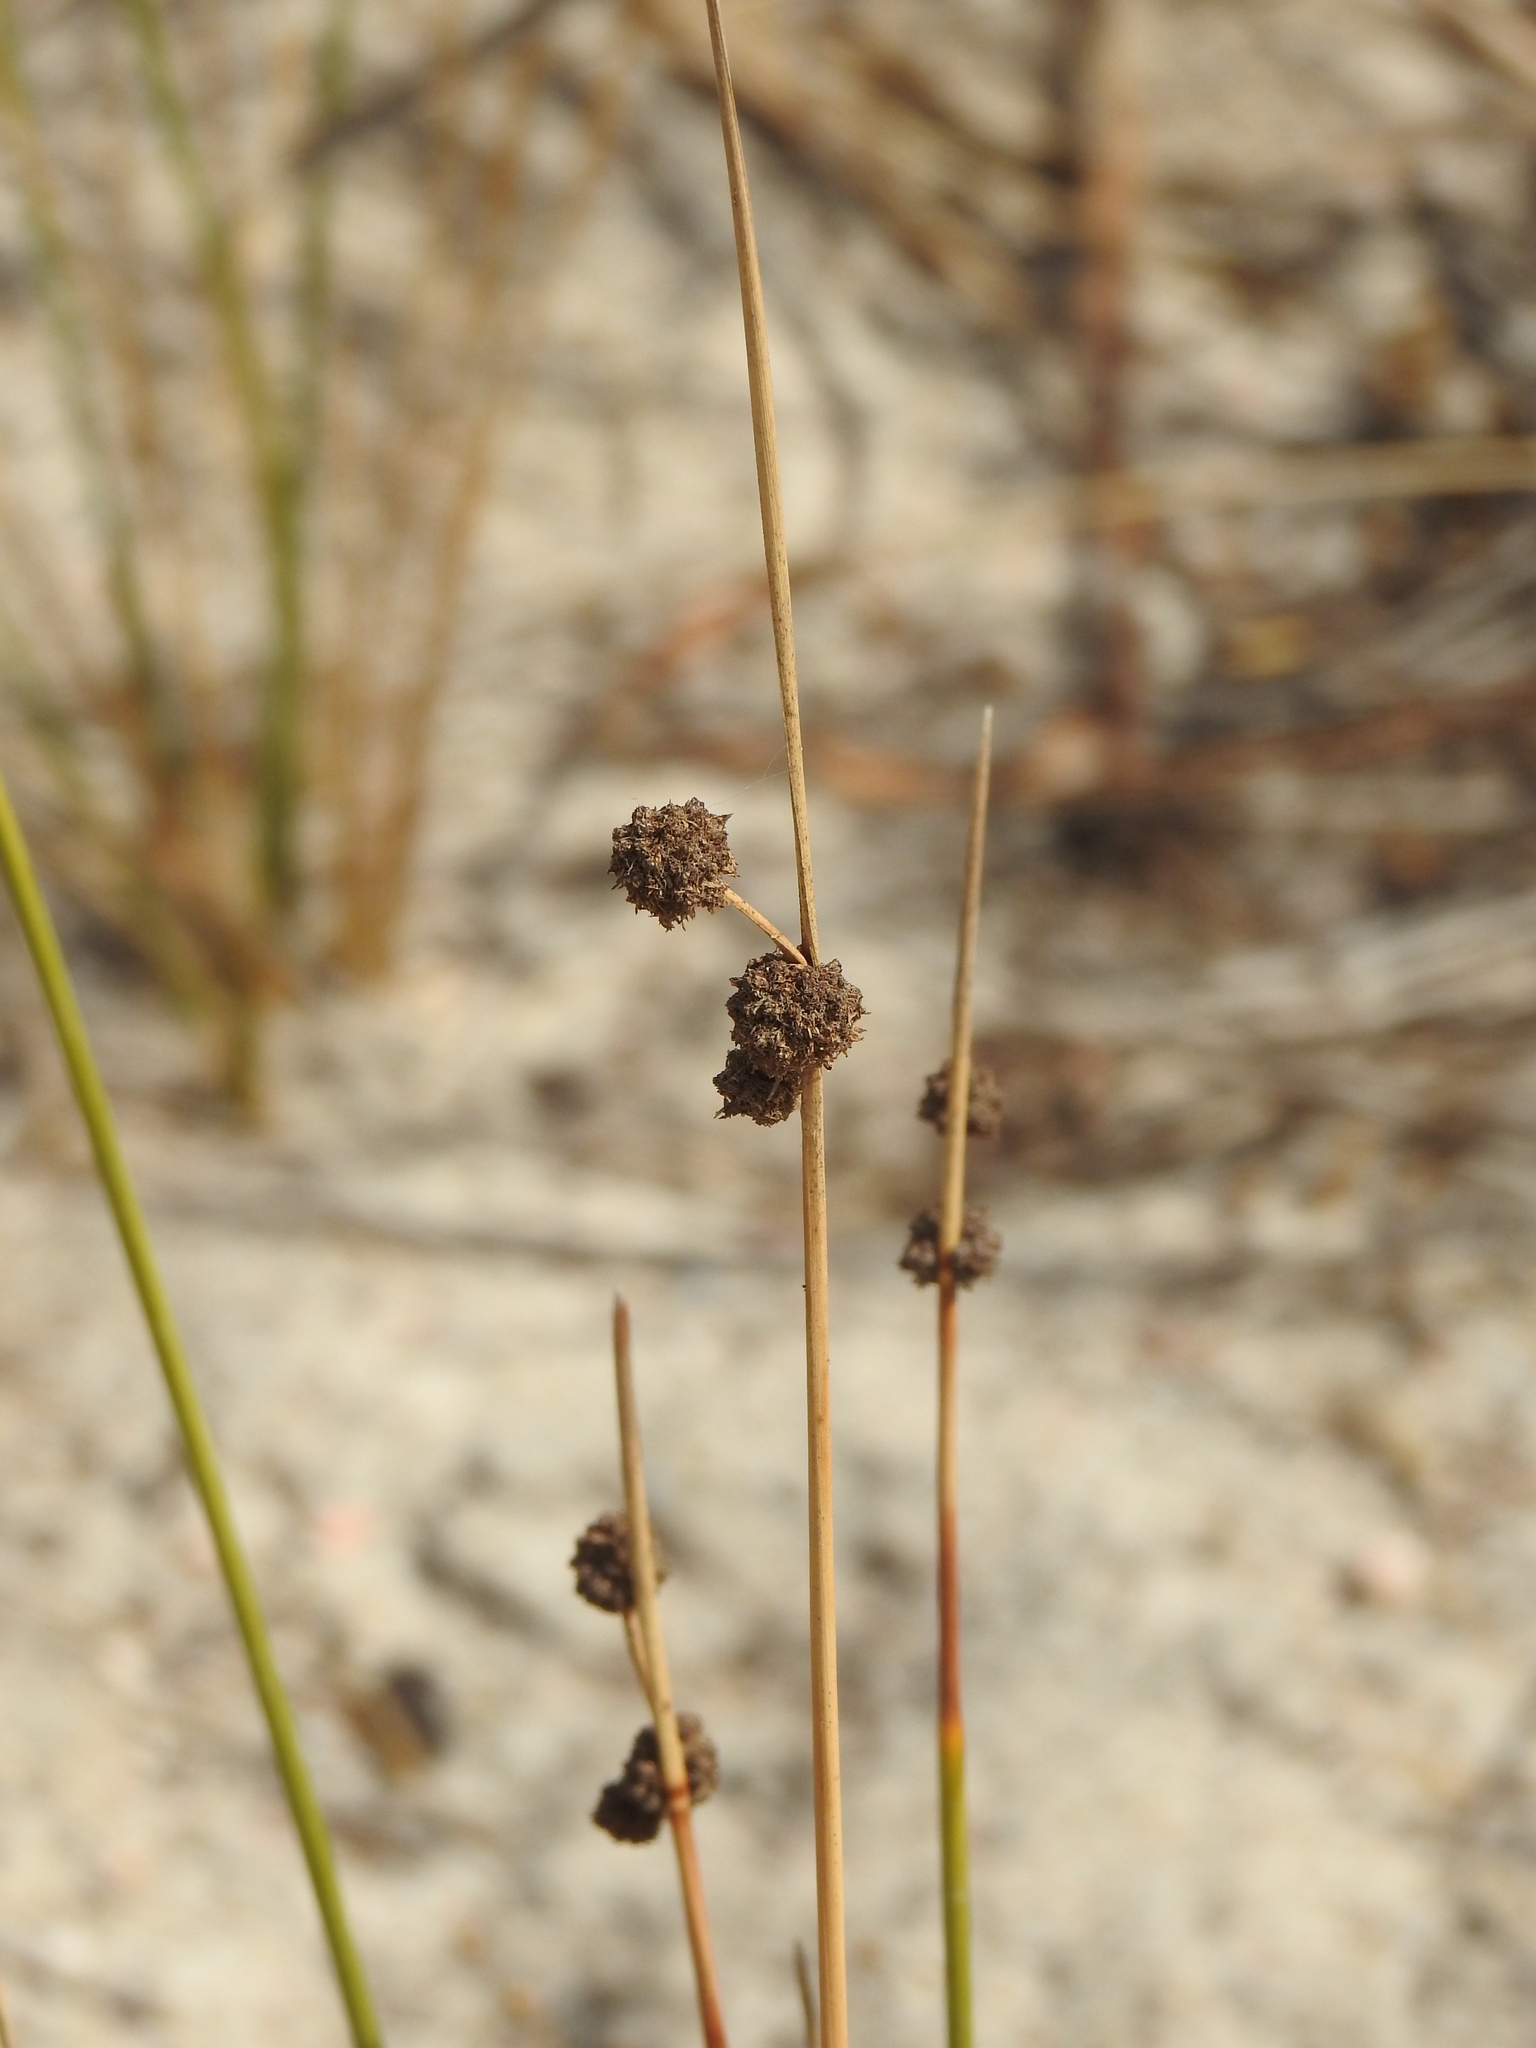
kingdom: Plantae
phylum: Tracheophyta
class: Liliopsida
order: Poales
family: Cyperaceae
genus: Scirpoides
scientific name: Scirpoides holoschoenus
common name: Round-headed club-rush
